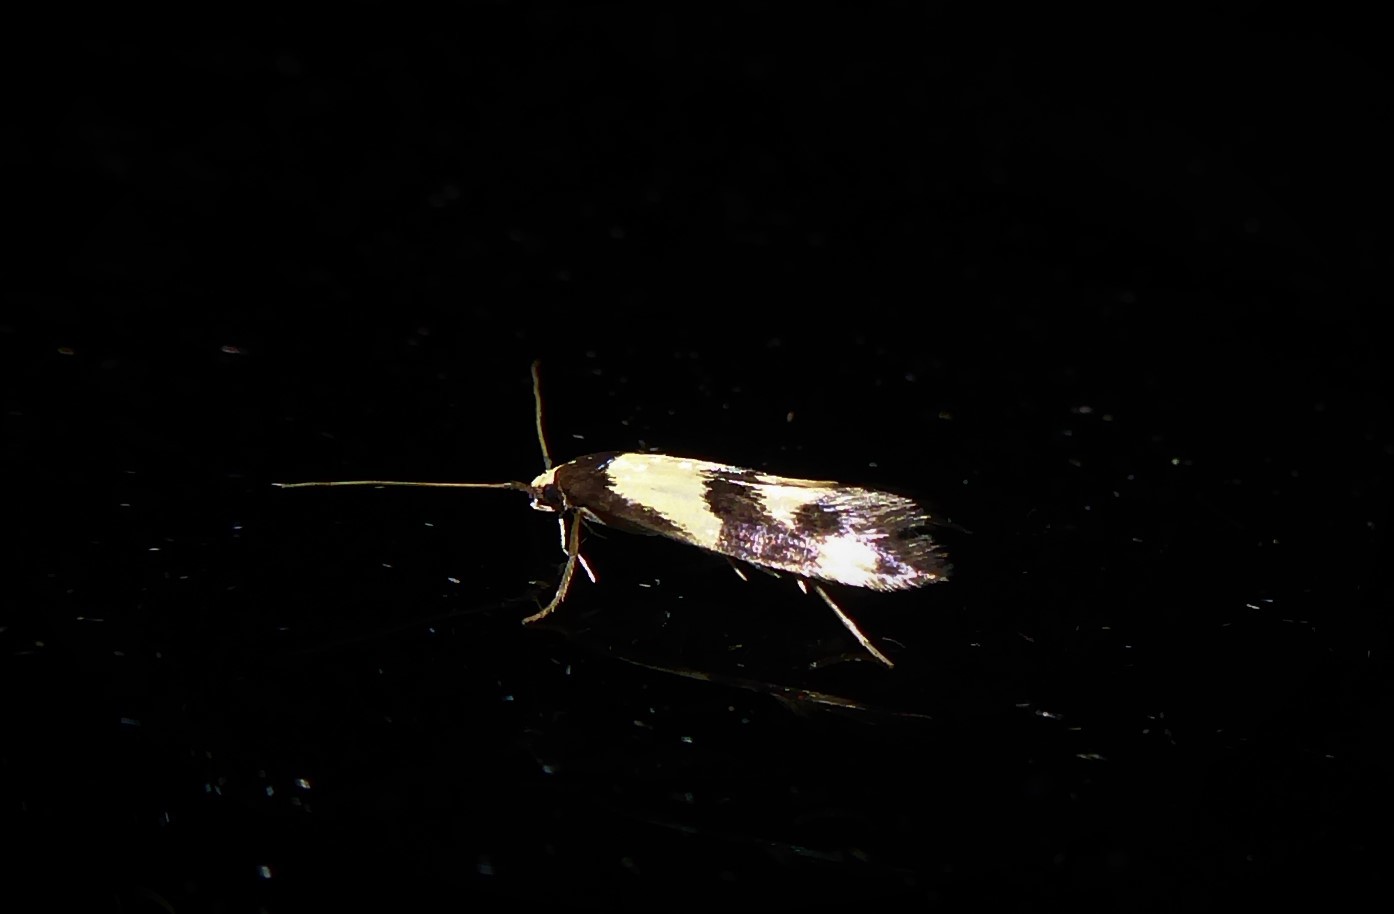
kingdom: Animalia
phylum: Arthropoda
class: Insecta
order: Lepidoptera
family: Tineidae
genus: Opogona
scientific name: Opogona comptella
